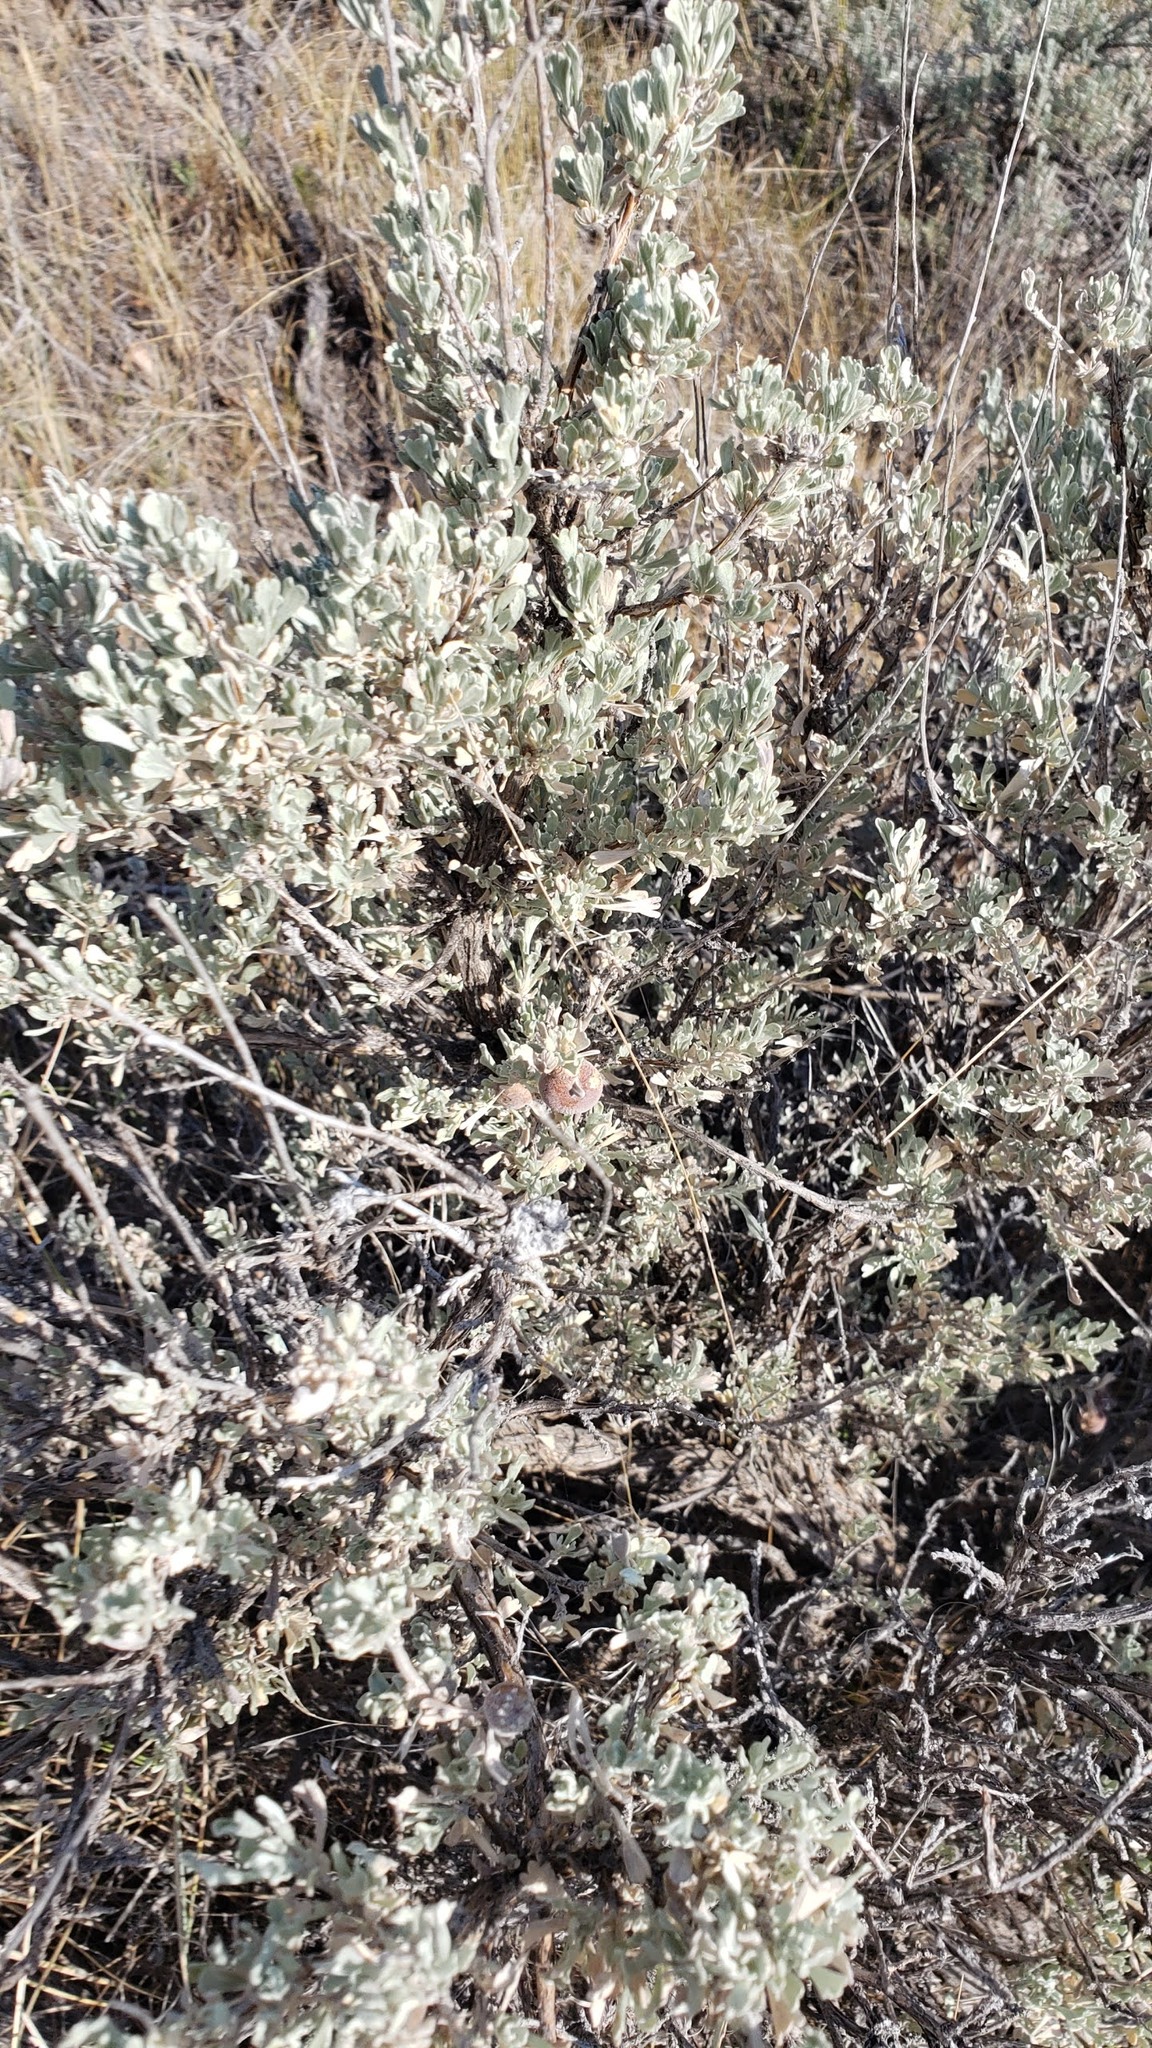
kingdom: Plantae
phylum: Tracheophyta
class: Magnoliopsida
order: Asterales
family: Asteraceae
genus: Artemisia
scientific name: Artemisia tridentata
